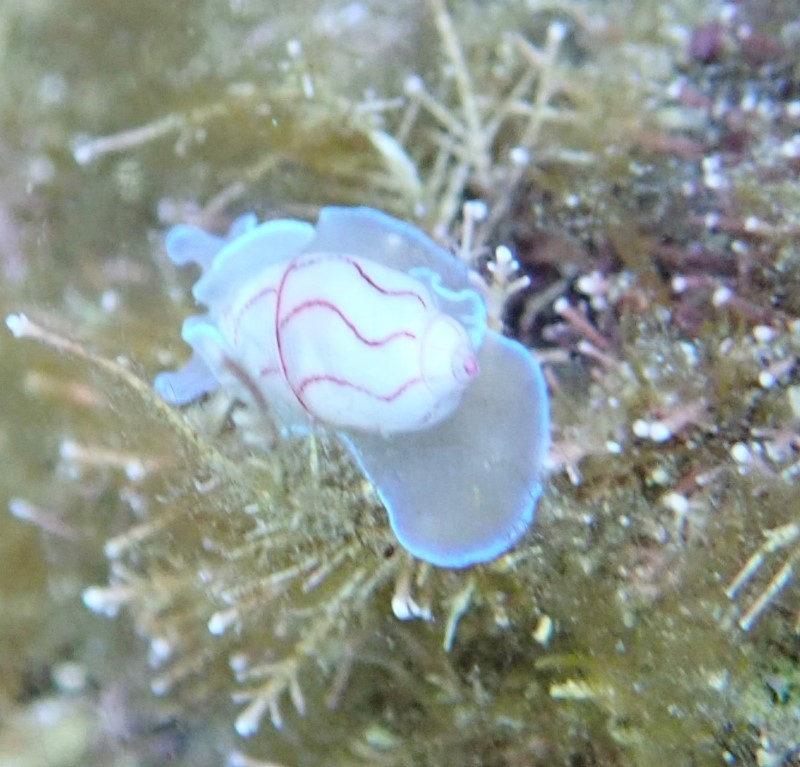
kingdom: Animalia
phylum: Mollusca
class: Gastropoda
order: Cephalaspidea
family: Aplustridae
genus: Bullina
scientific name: Bullina lineata
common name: Lined bubble snail
